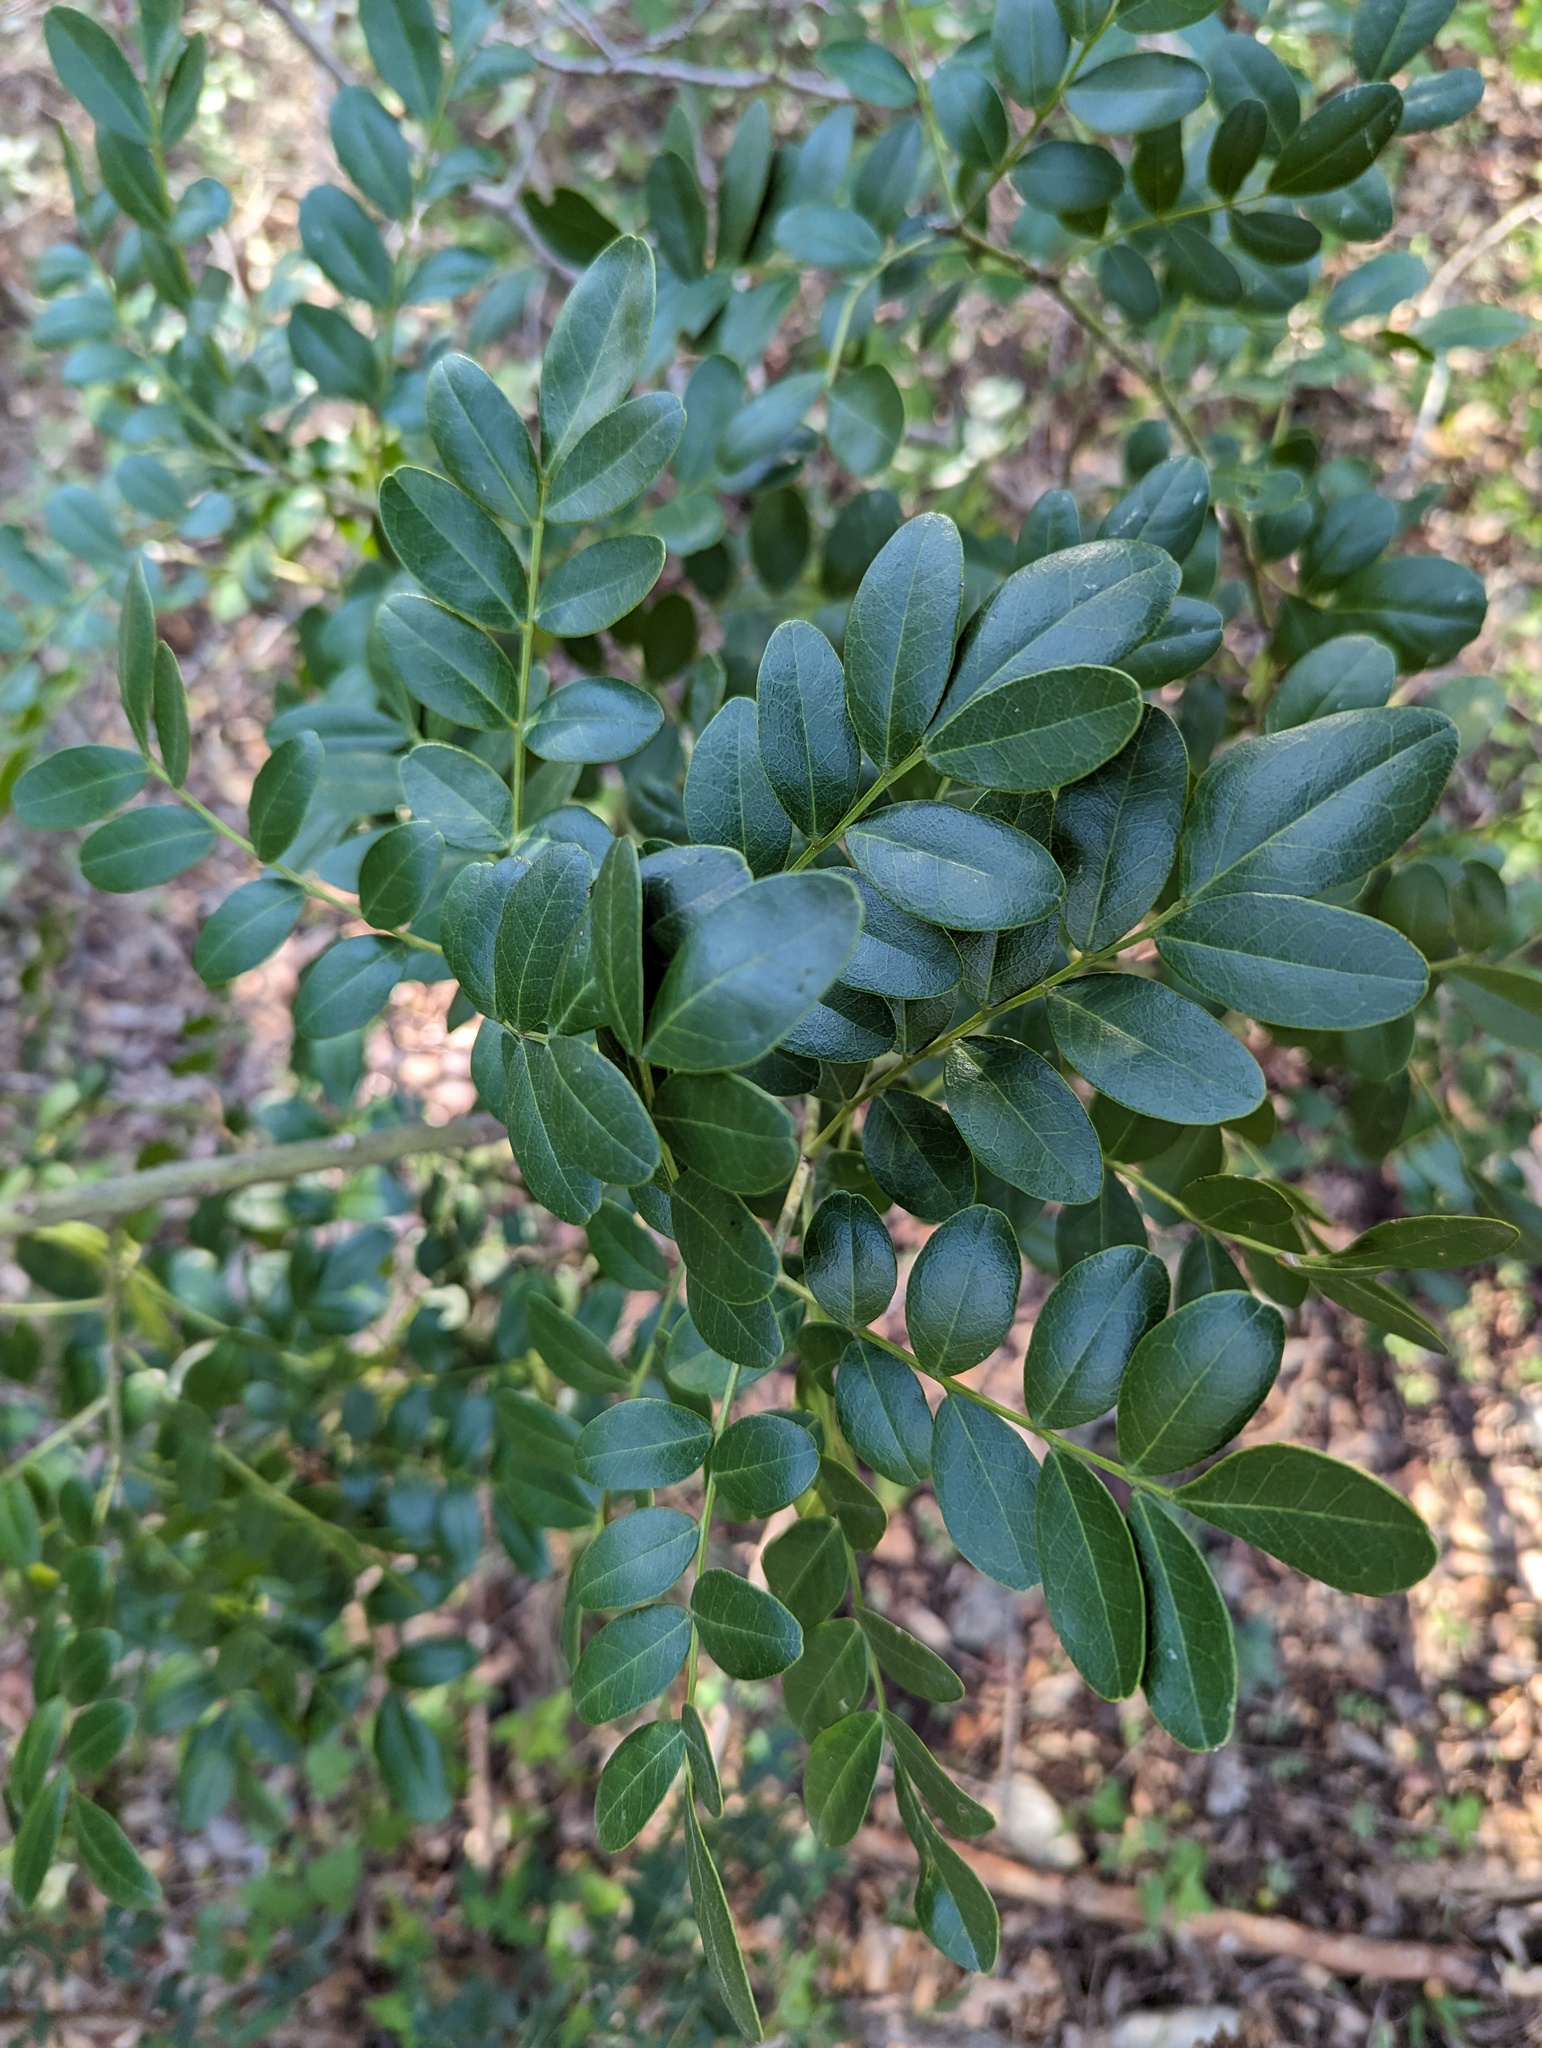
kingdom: Plantae
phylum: Tracheophyta
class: Magnoliopsida
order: Fabales
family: Fabaceae
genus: Dermatophyllum
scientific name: Dermatophyllum secundiflorum
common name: Texas-mountain-laurel
